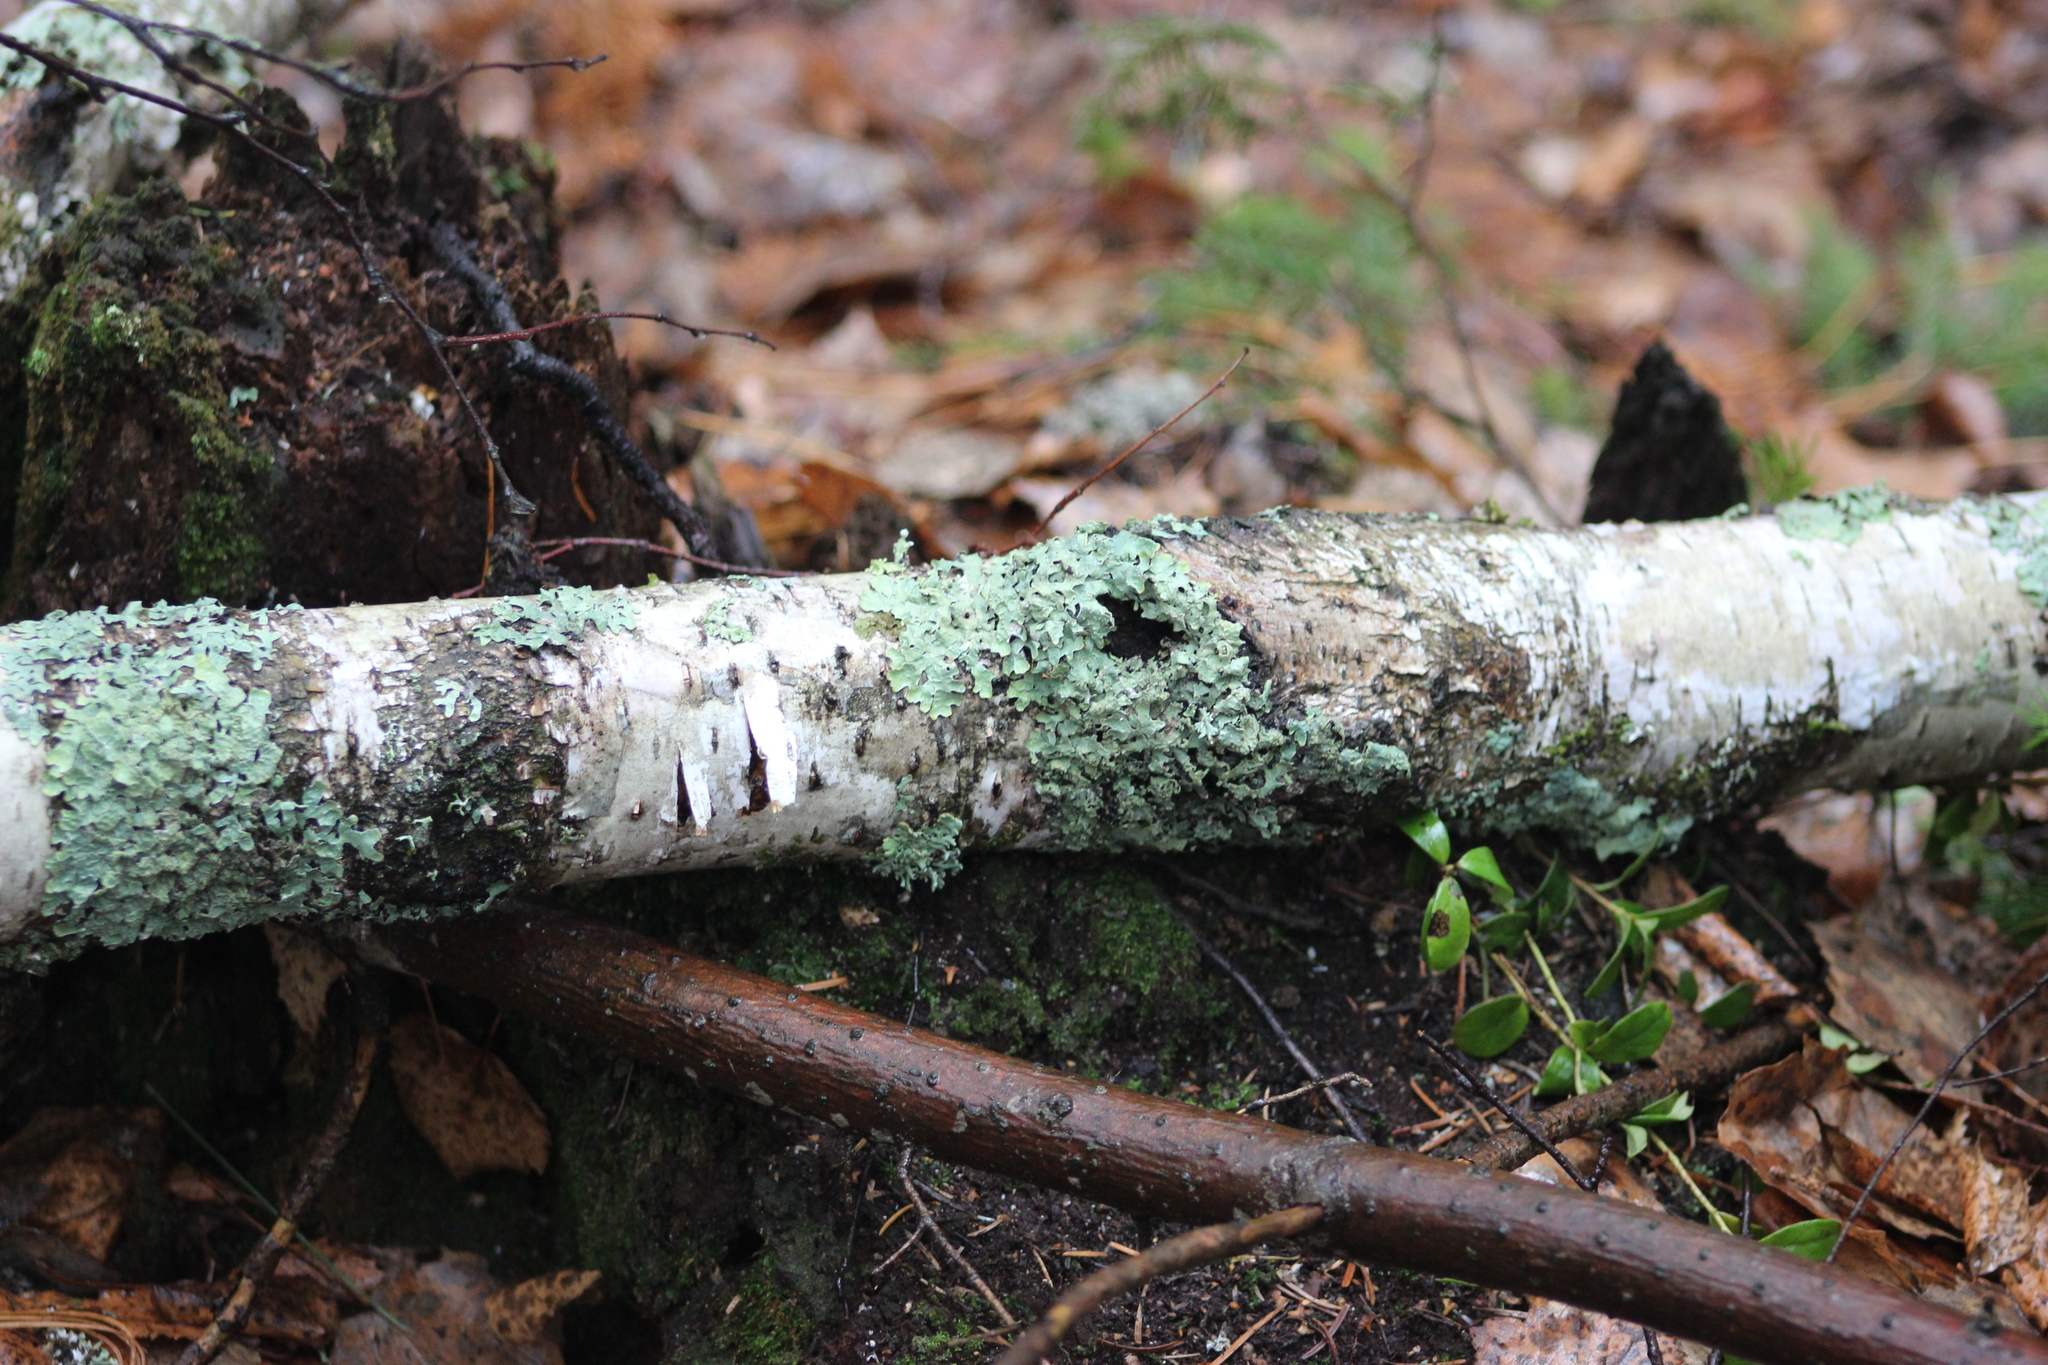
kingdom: Fungi
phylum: Ascomycota
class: Lecanoromycetes
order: Lecanorales
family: Parmeliaceae
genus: Parmelia
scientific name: Parmelia sulcata
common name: Netted shield lichen
